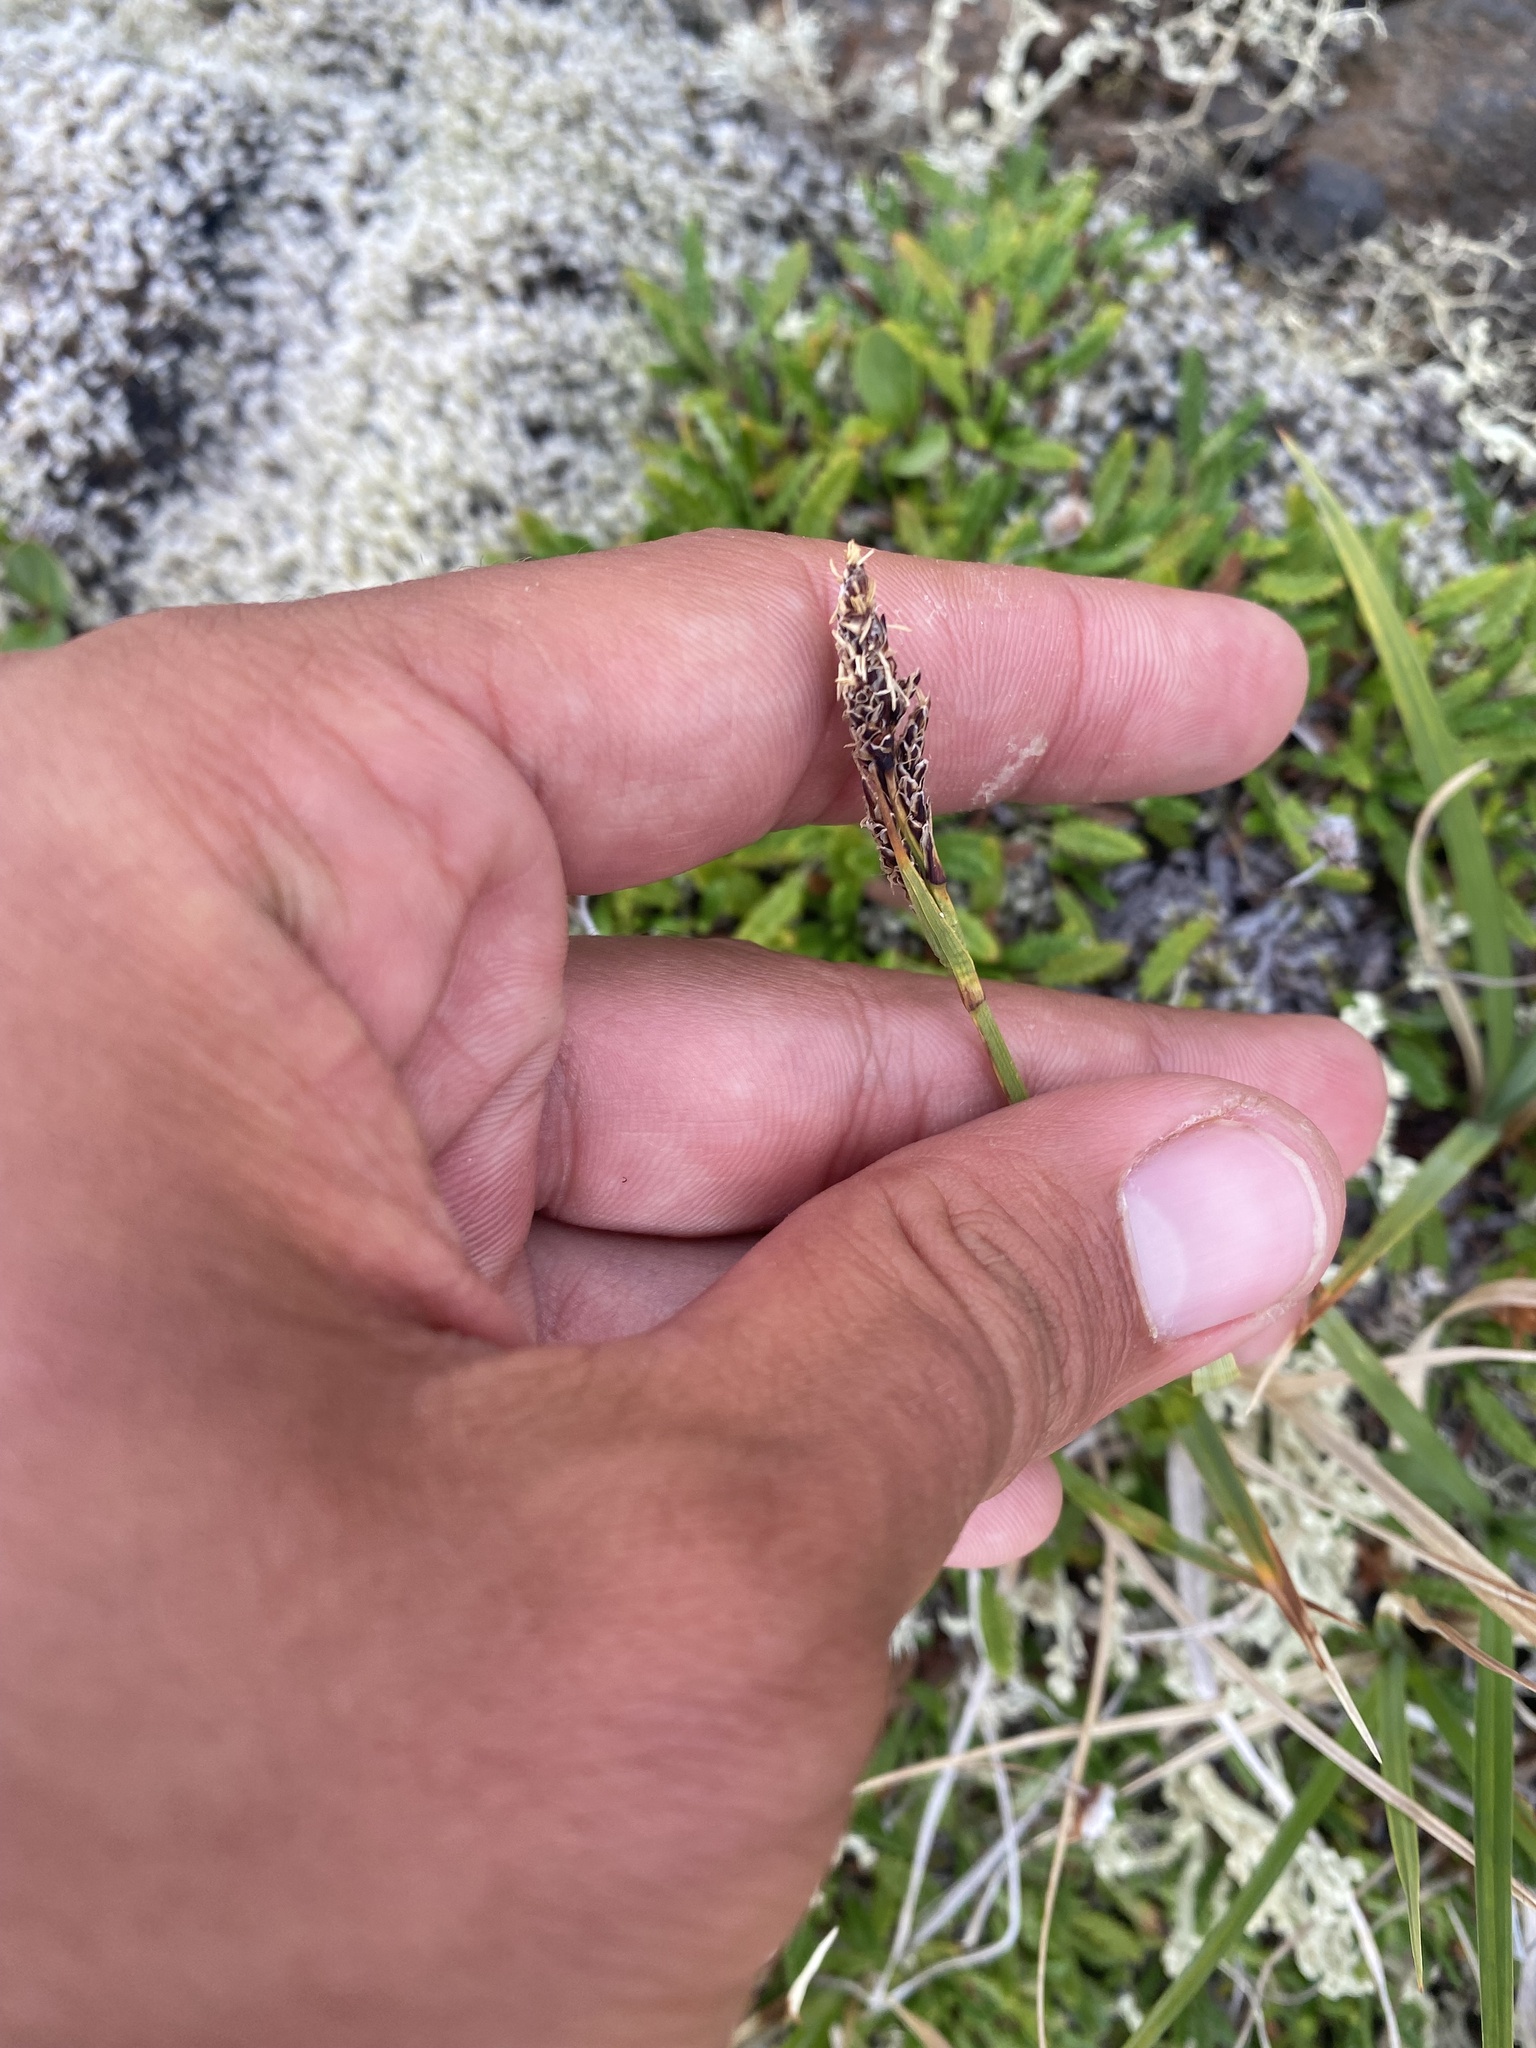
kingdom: Plantae
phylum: Tracheophyta
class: Liliopsida
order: Poales
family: Cyperaceae
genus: Carex
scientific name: Carex bigelowii
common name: Stiff sedge
